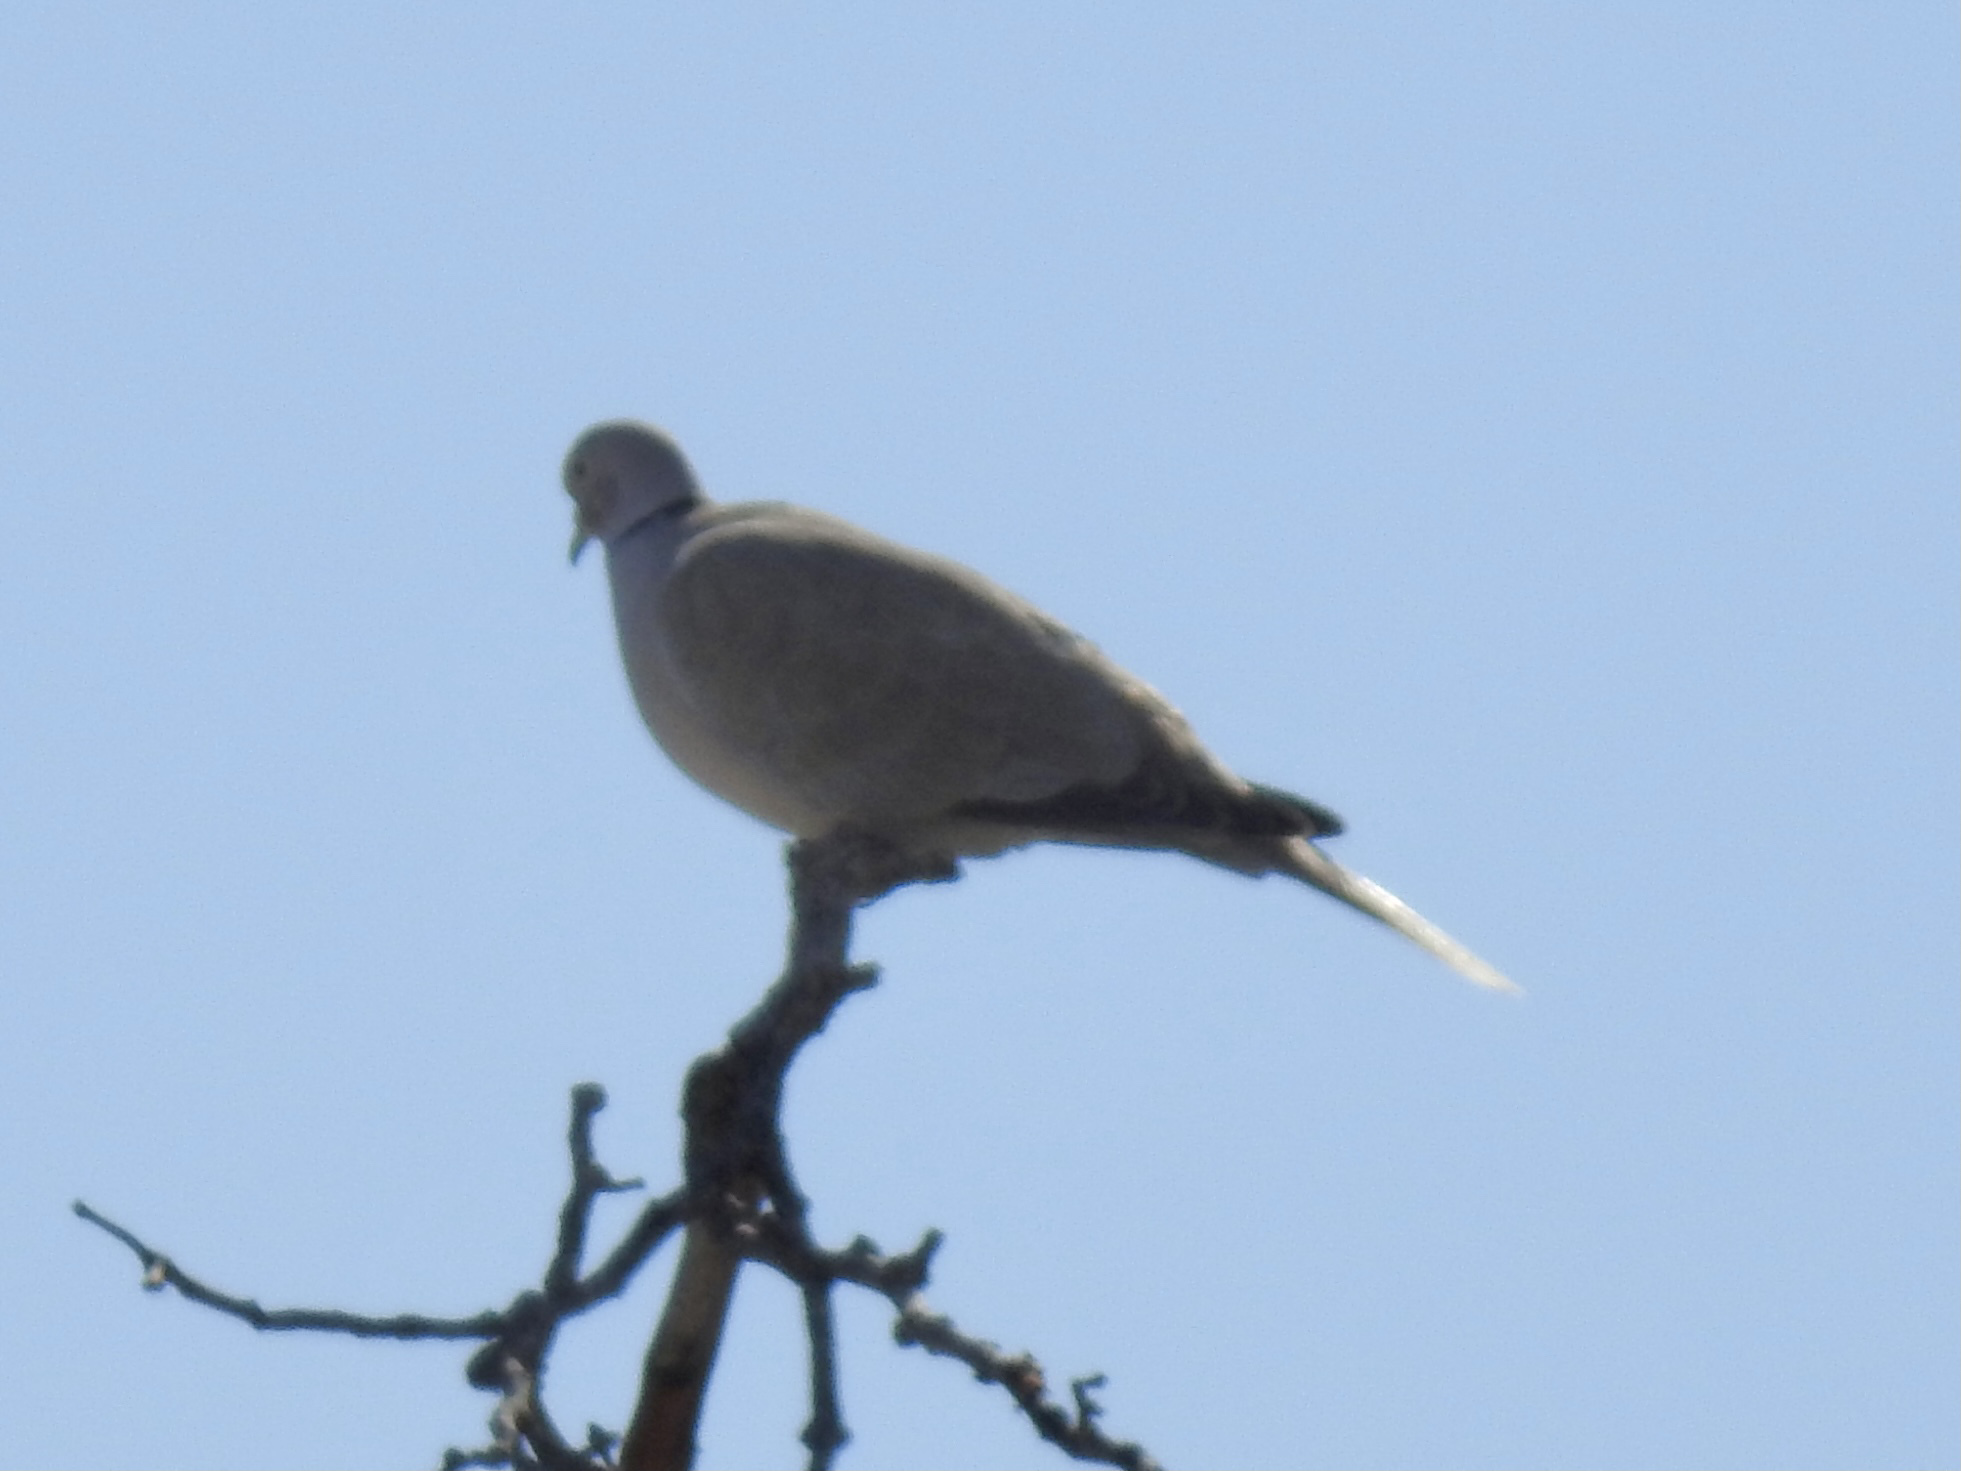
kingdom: Animalia
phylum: Chordata
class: Aves
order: Columbiformes
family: Columbidae
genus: Streptopelia
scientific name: Streptopelia decaocto
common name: Eurasian collared dove
